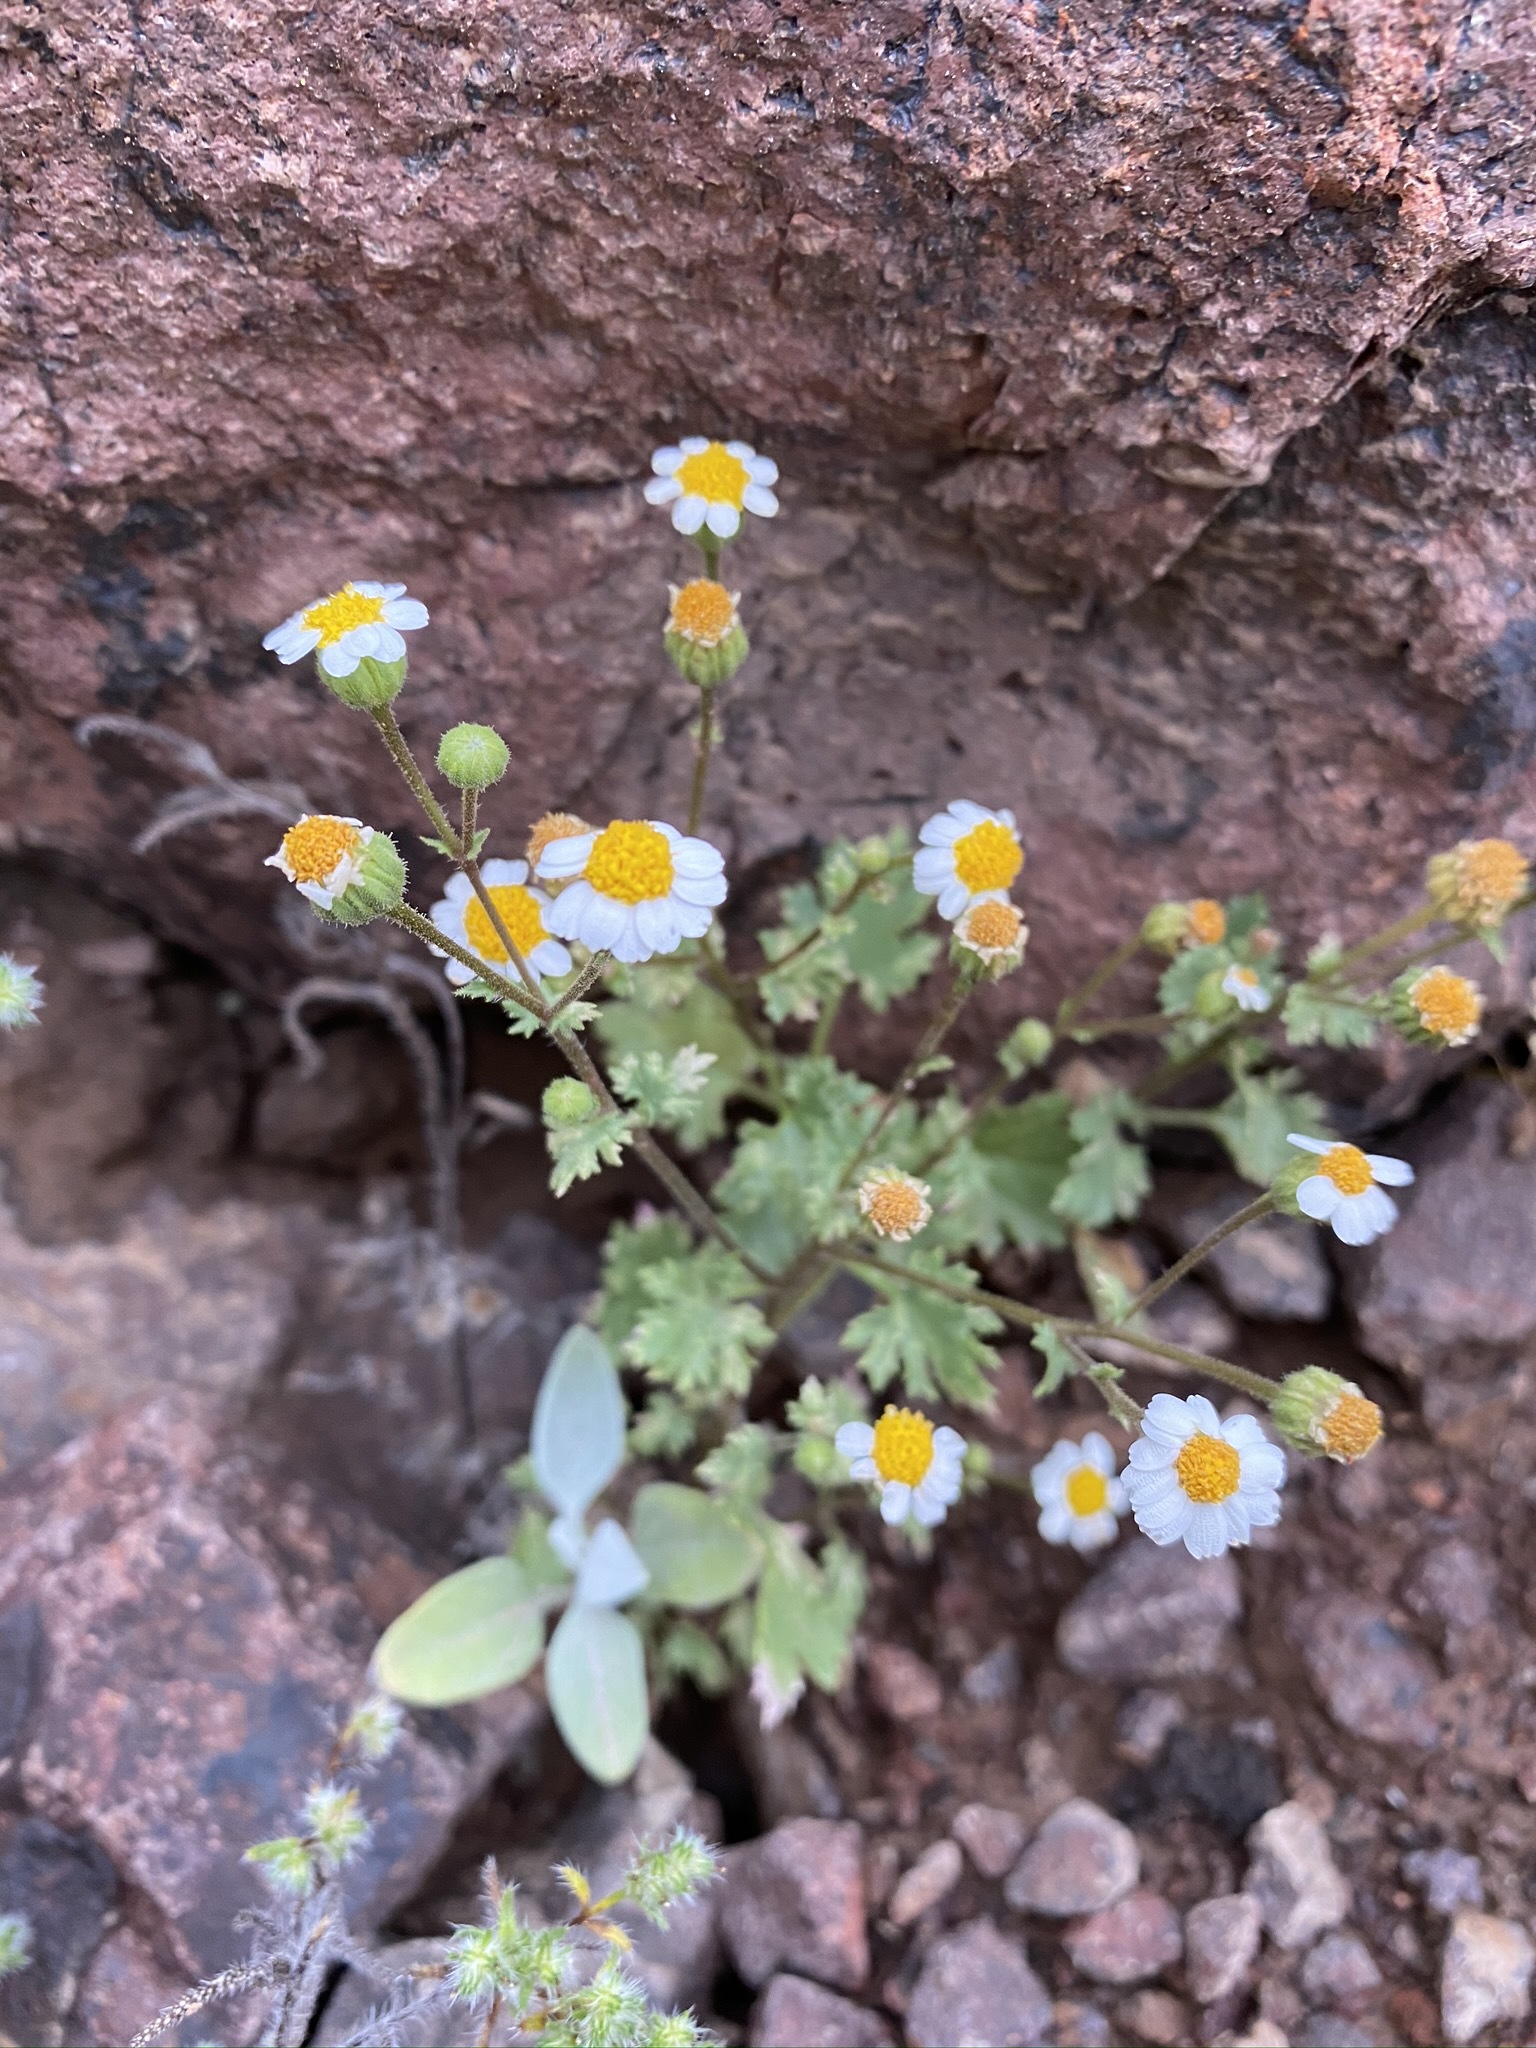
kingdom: Plantae
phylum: Tracheophyta
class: Magnoliopsida
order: Asterales
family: Asteraceae
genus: Laphamia
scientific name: Laphamia emoryi
